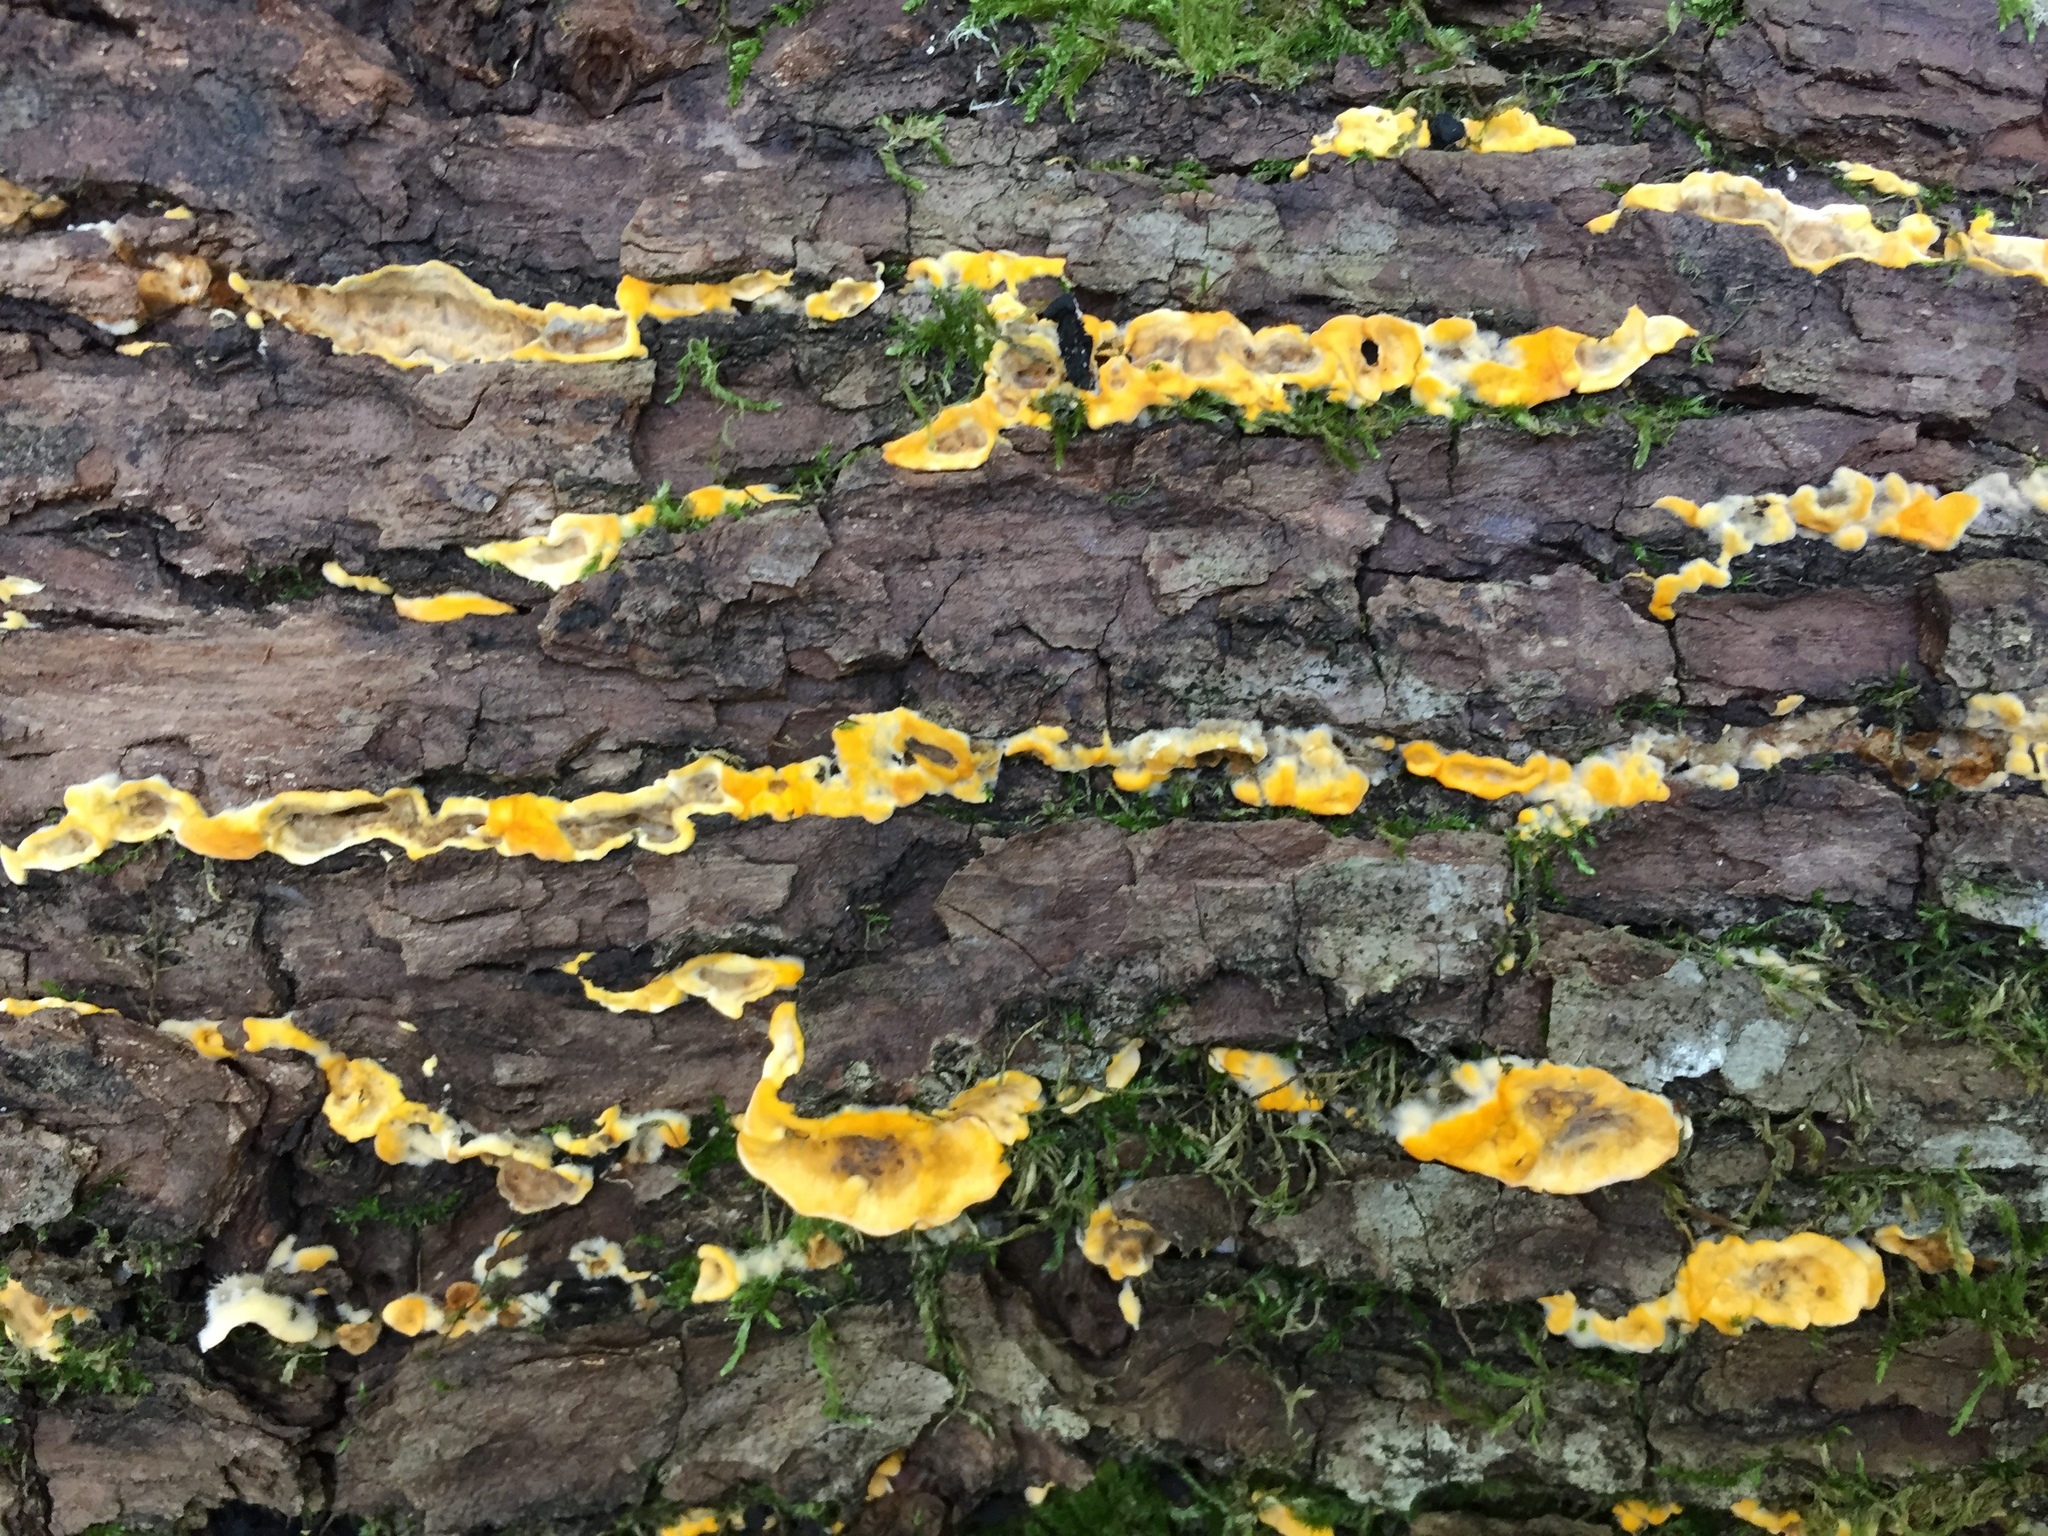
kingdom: Fungi
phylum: Basidiomycota
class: Agaricomycetes
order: Russulales
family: Stereaceae
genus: Stereum
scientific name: Stereum hirsutum
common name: Hairy curtain crust
